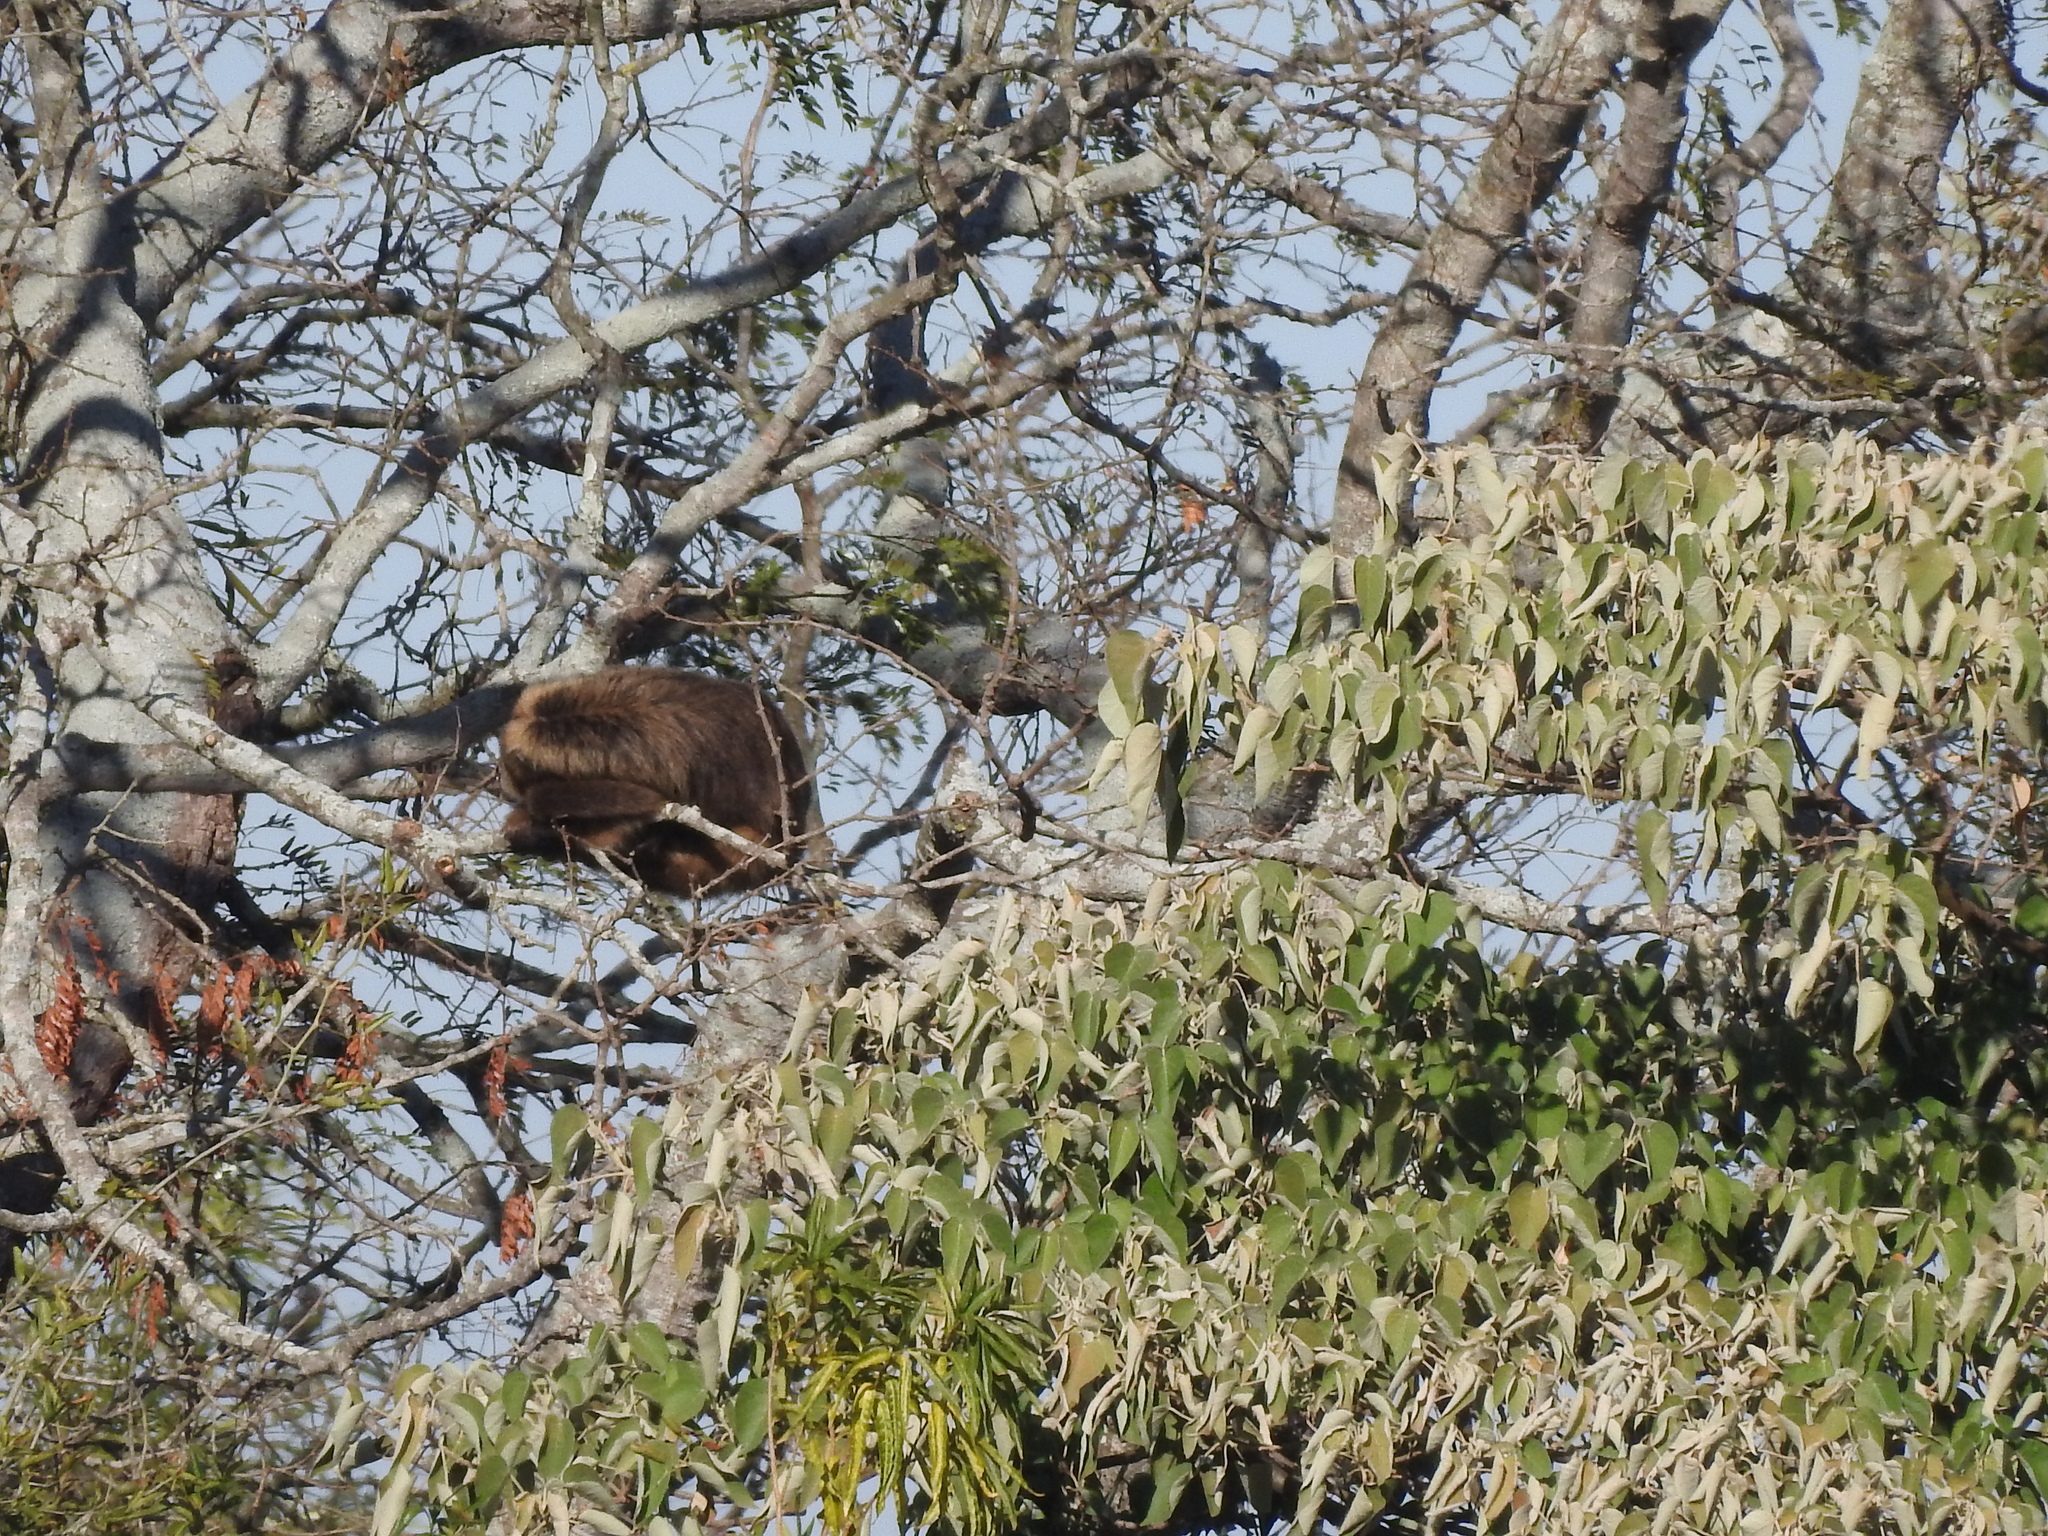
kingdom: Animalia
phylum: Chordata
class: Mammalia
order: Primates
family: Atelidae
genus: Alouatta
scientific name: Alouatta caraya
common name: Black howler
